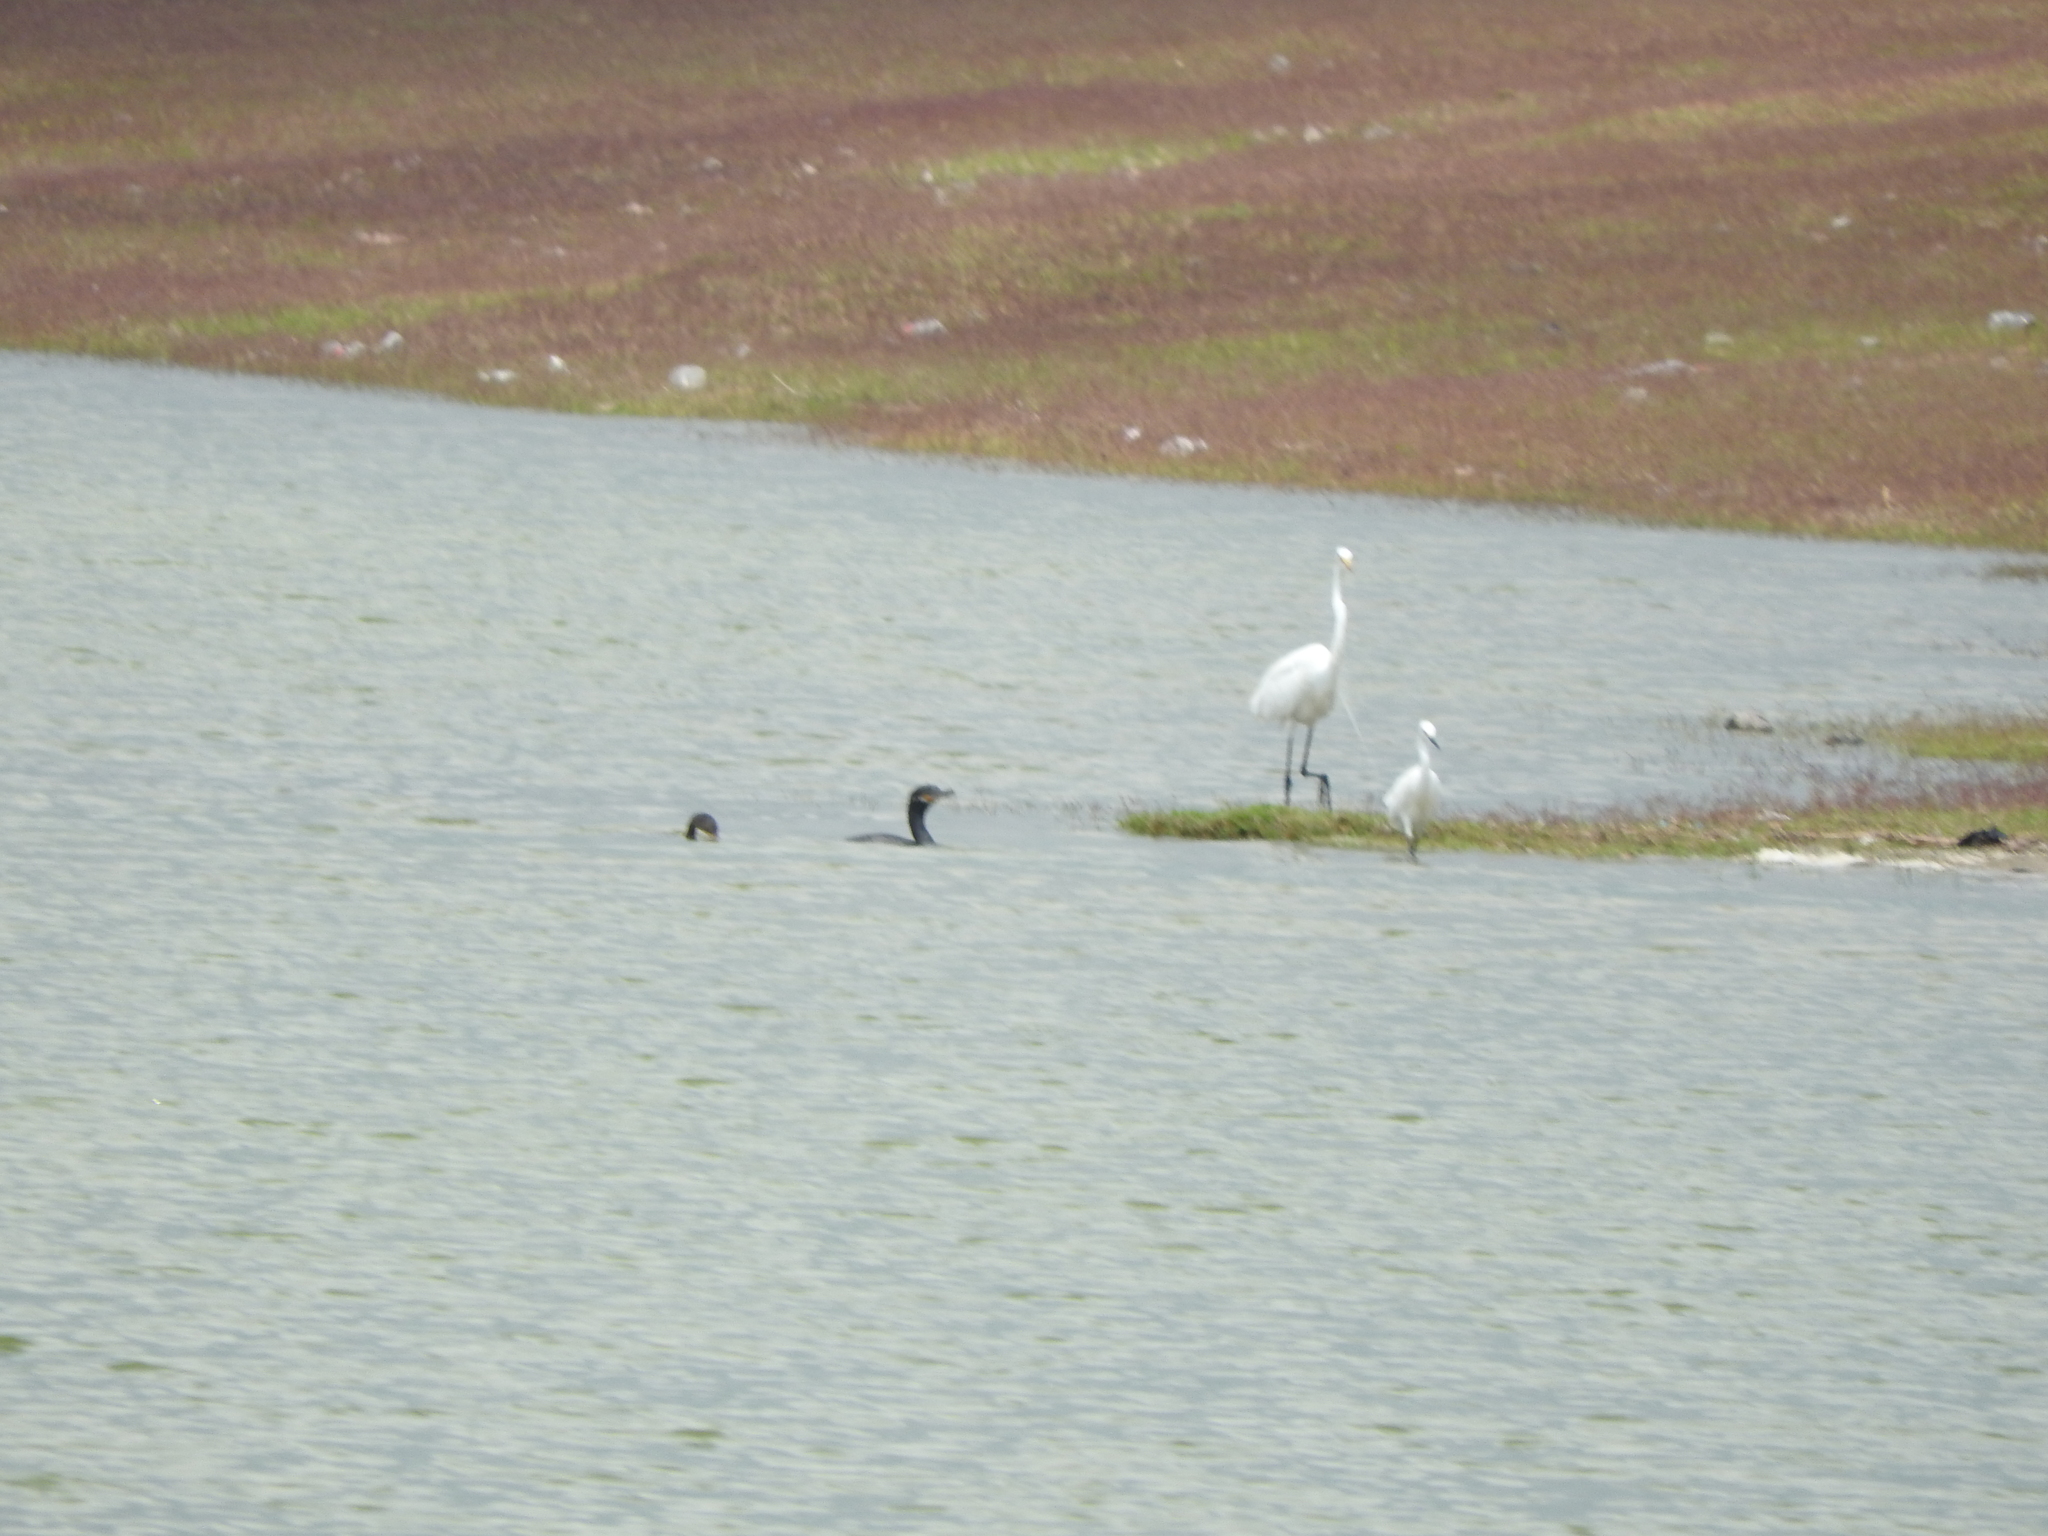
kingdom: Animalia
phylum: Chordata
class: Aves
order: Pelecaniformes
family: Ardeidae
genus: Ardea
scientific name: Ardea alba
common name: Great egret
